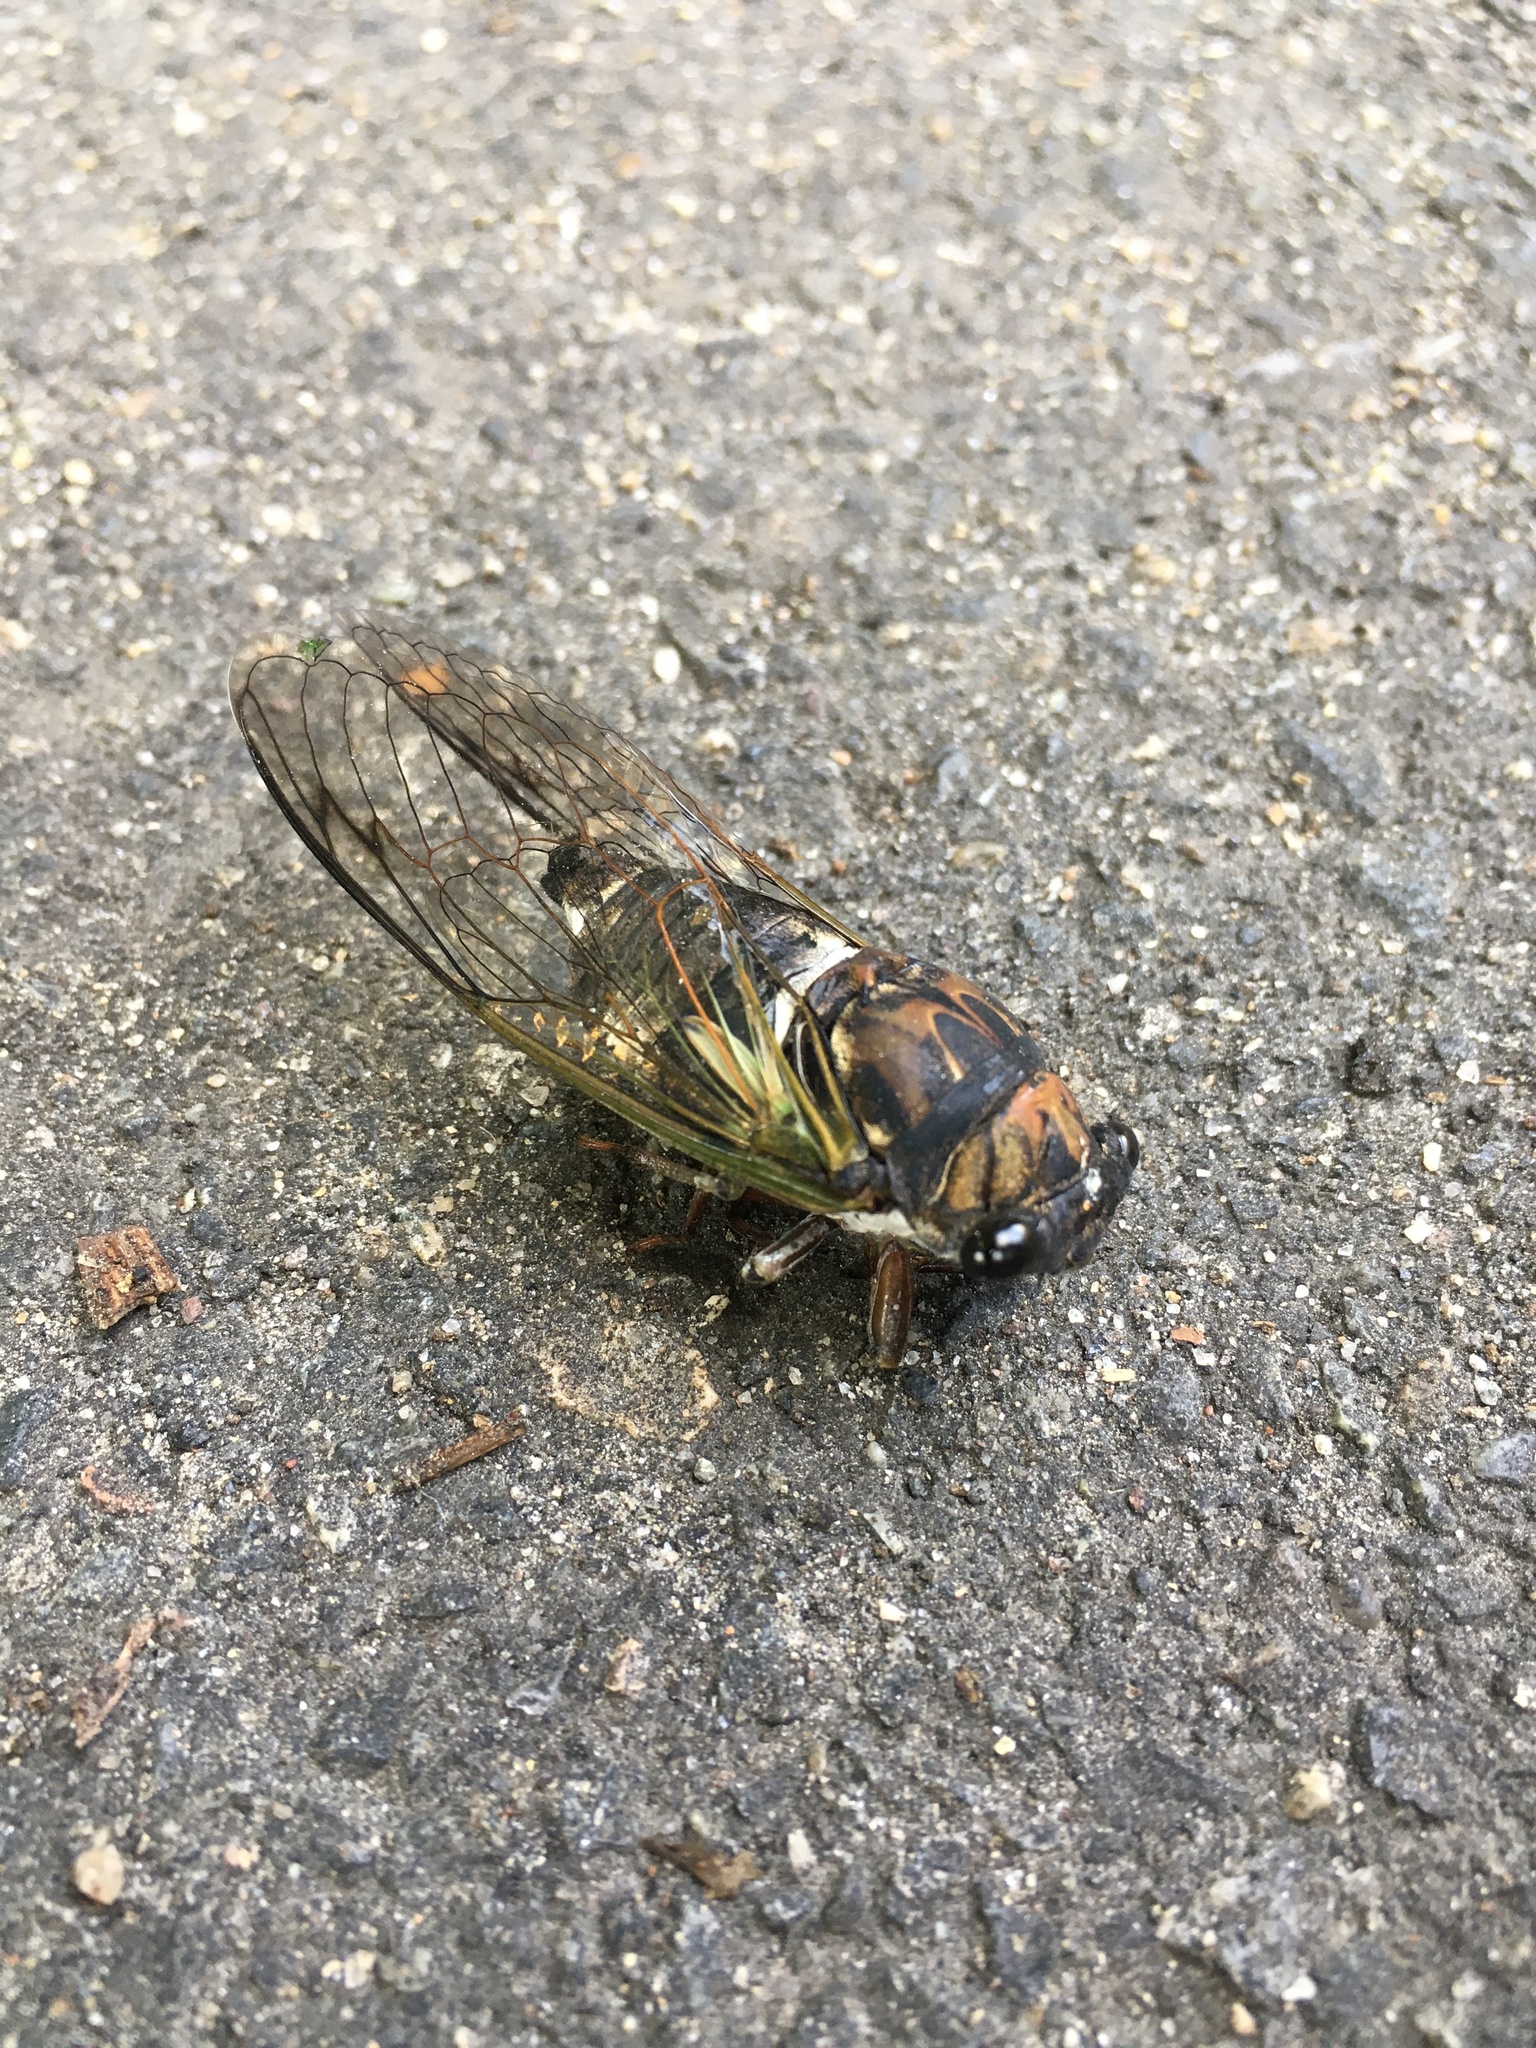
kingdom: Animalia
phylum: Arthropoda
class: Insecta
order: Hemiptera
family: Cicadidae
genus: Neotibicen
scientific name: Neotibicen lyricen
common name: Lyric cicada
